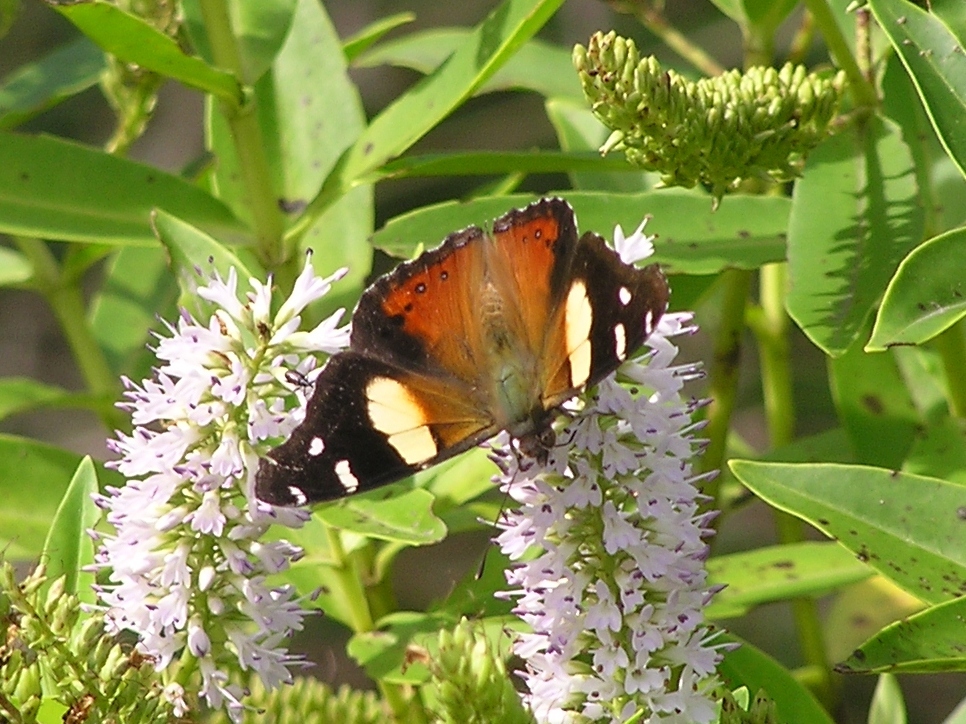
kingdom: Animalia
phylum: Arthropoda
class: Insecta
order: Lepidoptera
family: Nymphalidae
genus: Vanessa
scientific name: Vanessa itea
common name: Yellow admiral
